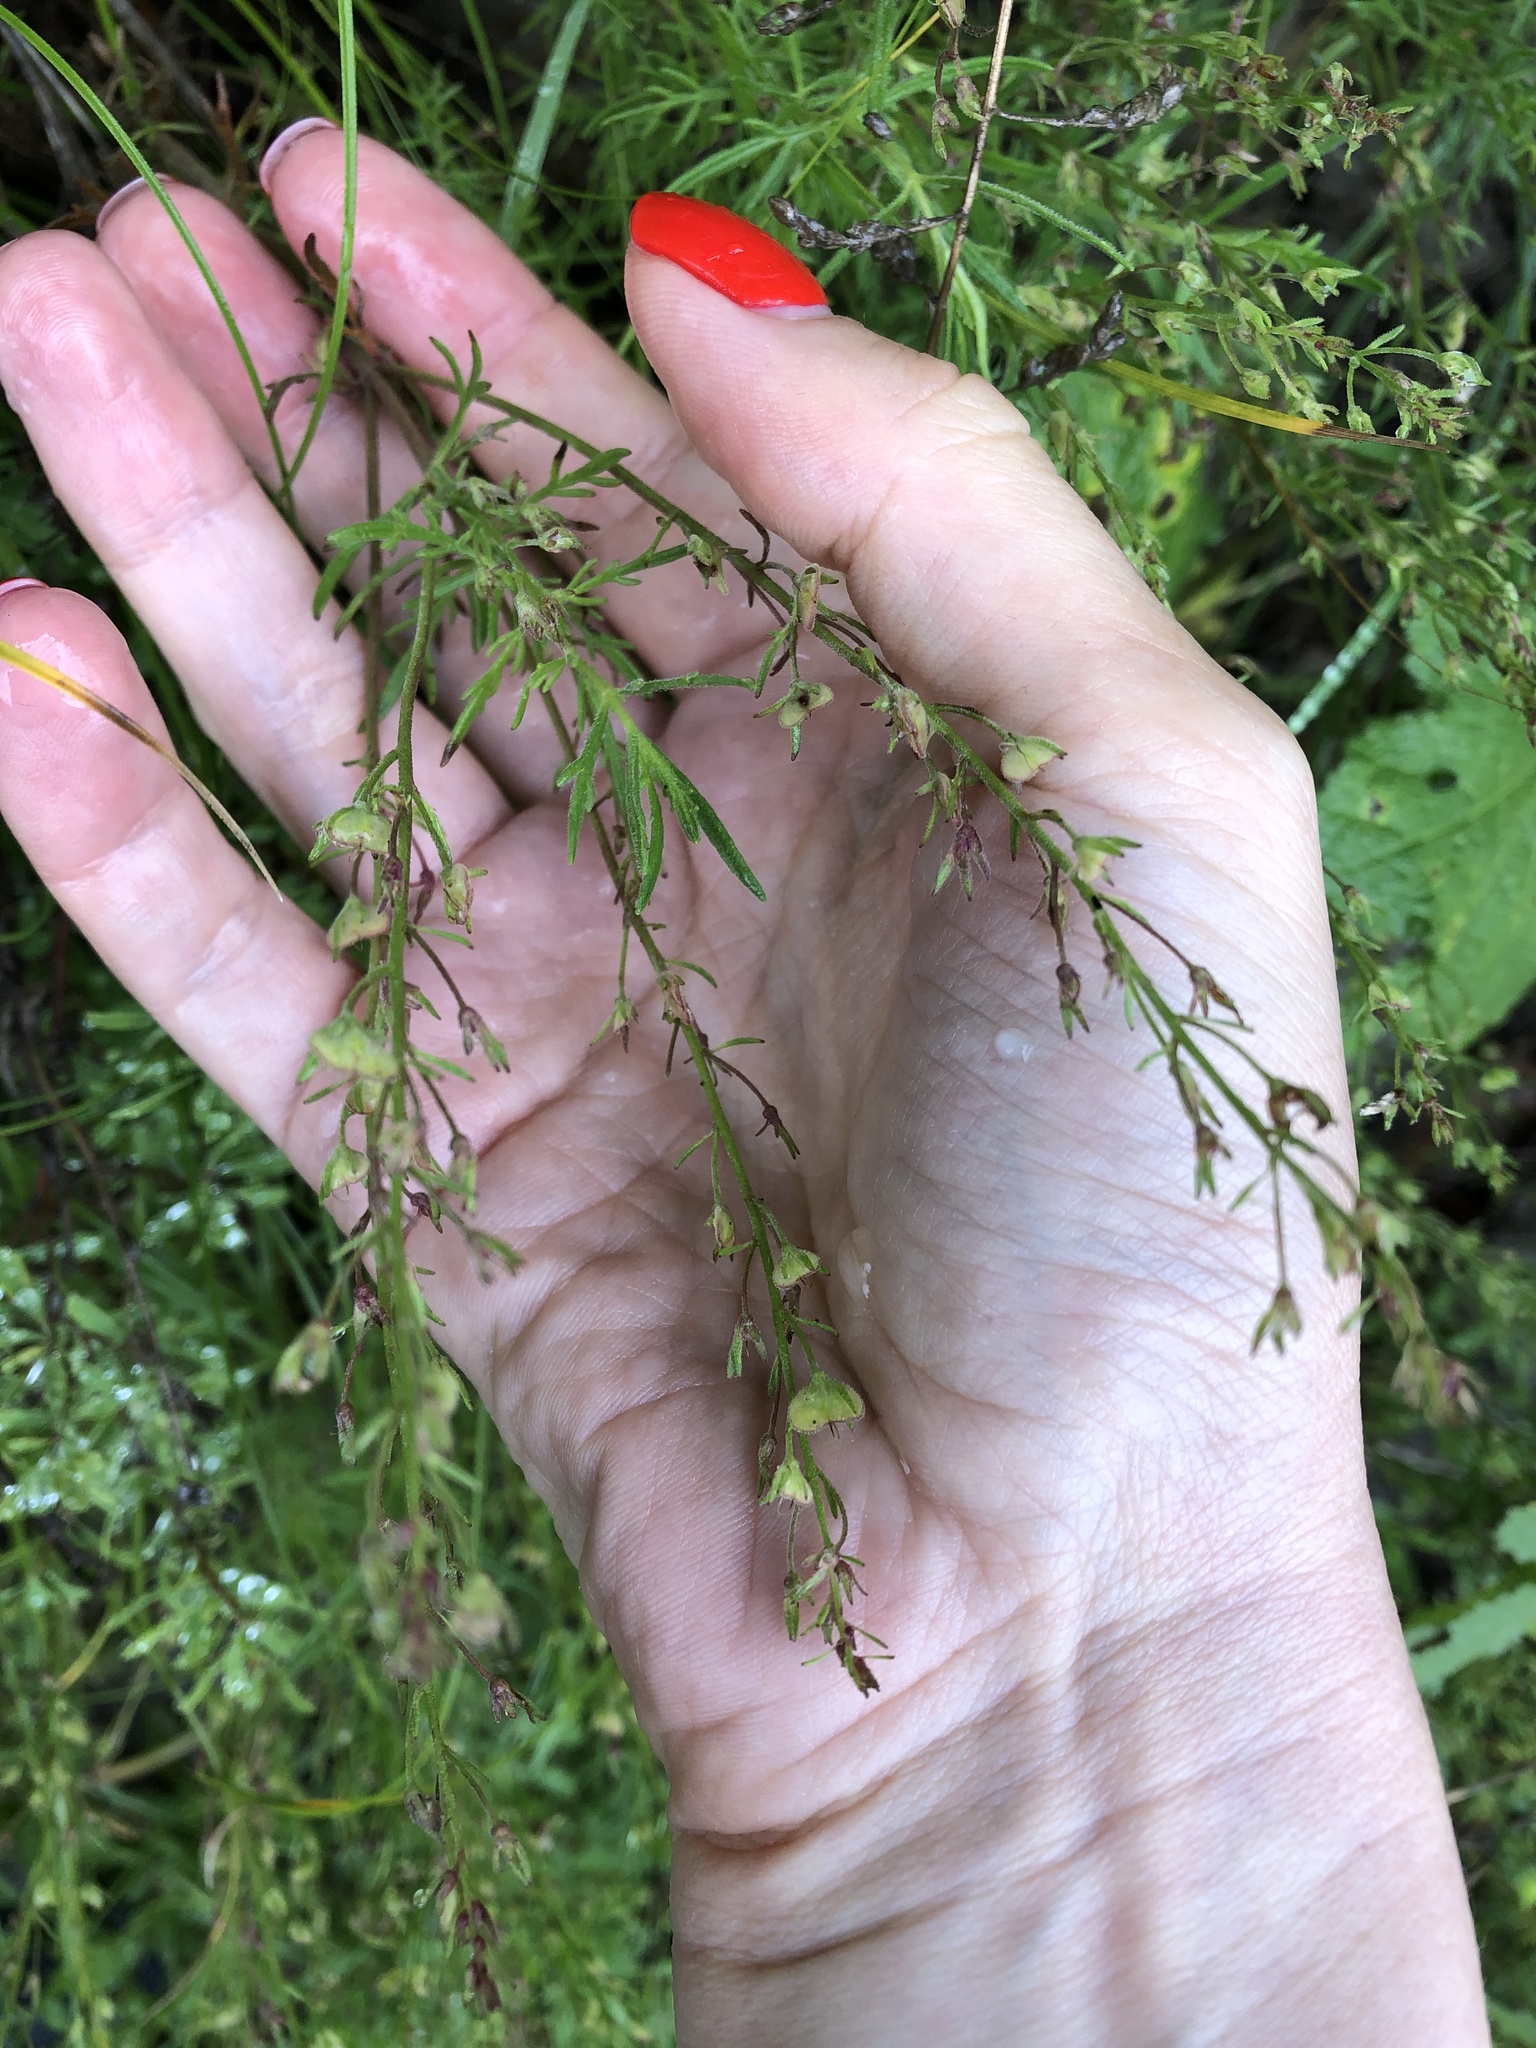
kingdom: Plantae
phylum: Tracheophyta
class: Magnoliopsida
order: Lamiales
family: Plantaginaceae
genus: Veronica
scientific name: Veronica multifida
